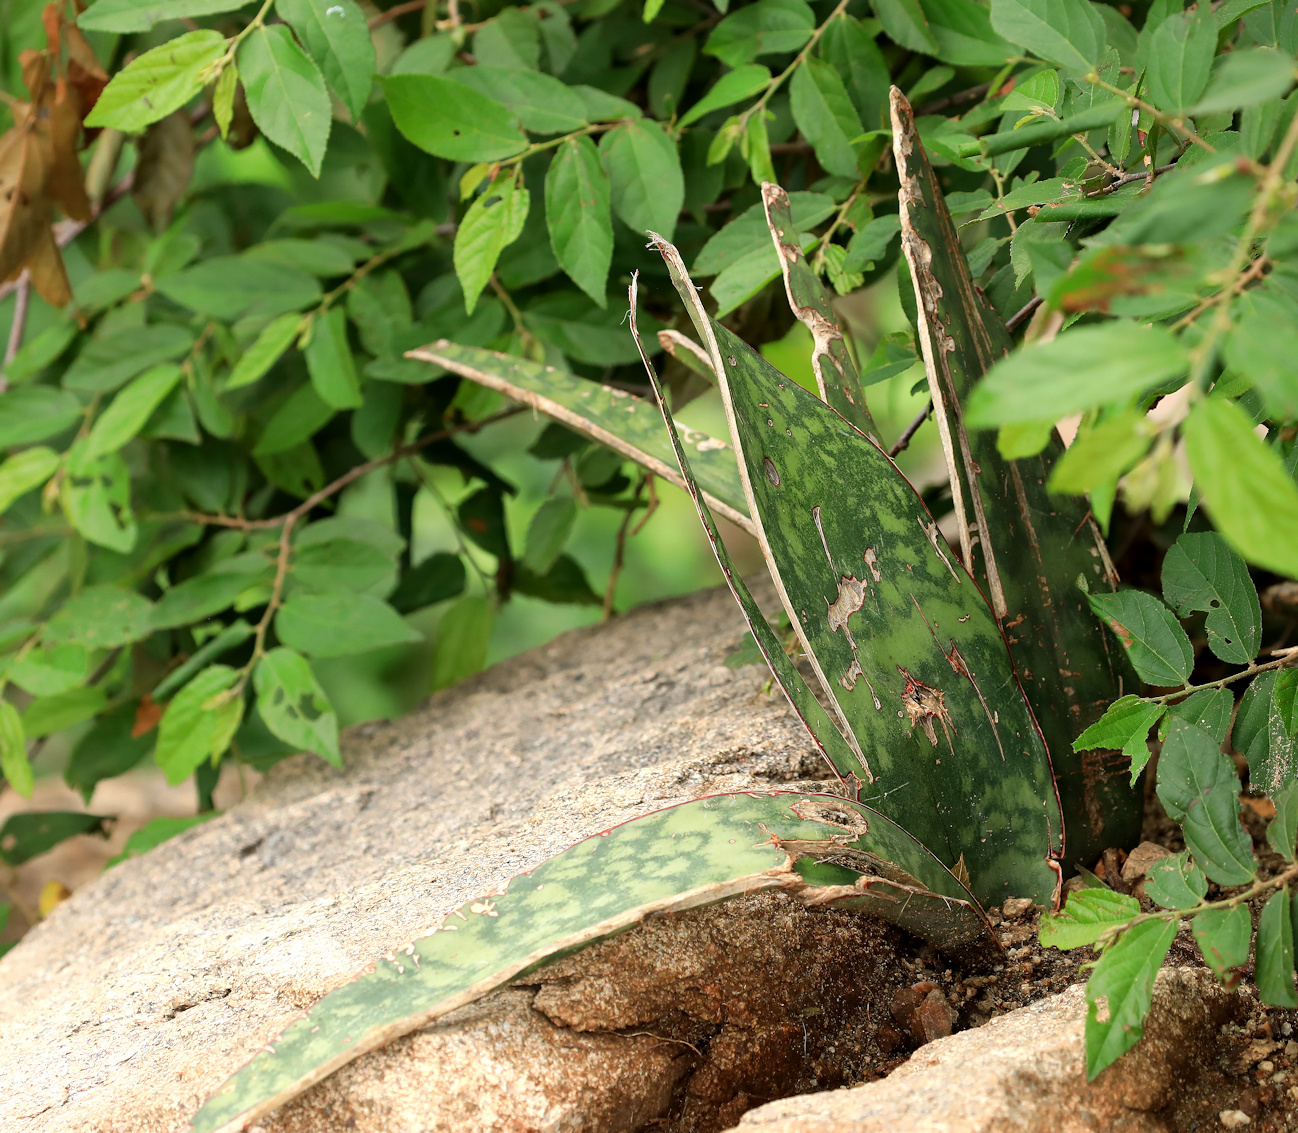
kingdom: Plantae
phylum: Tracheophyta
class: Liliopsida
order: Asparagales
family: Asparagaceae
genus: Dracaena
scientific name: Dracaena hyacinthoides
